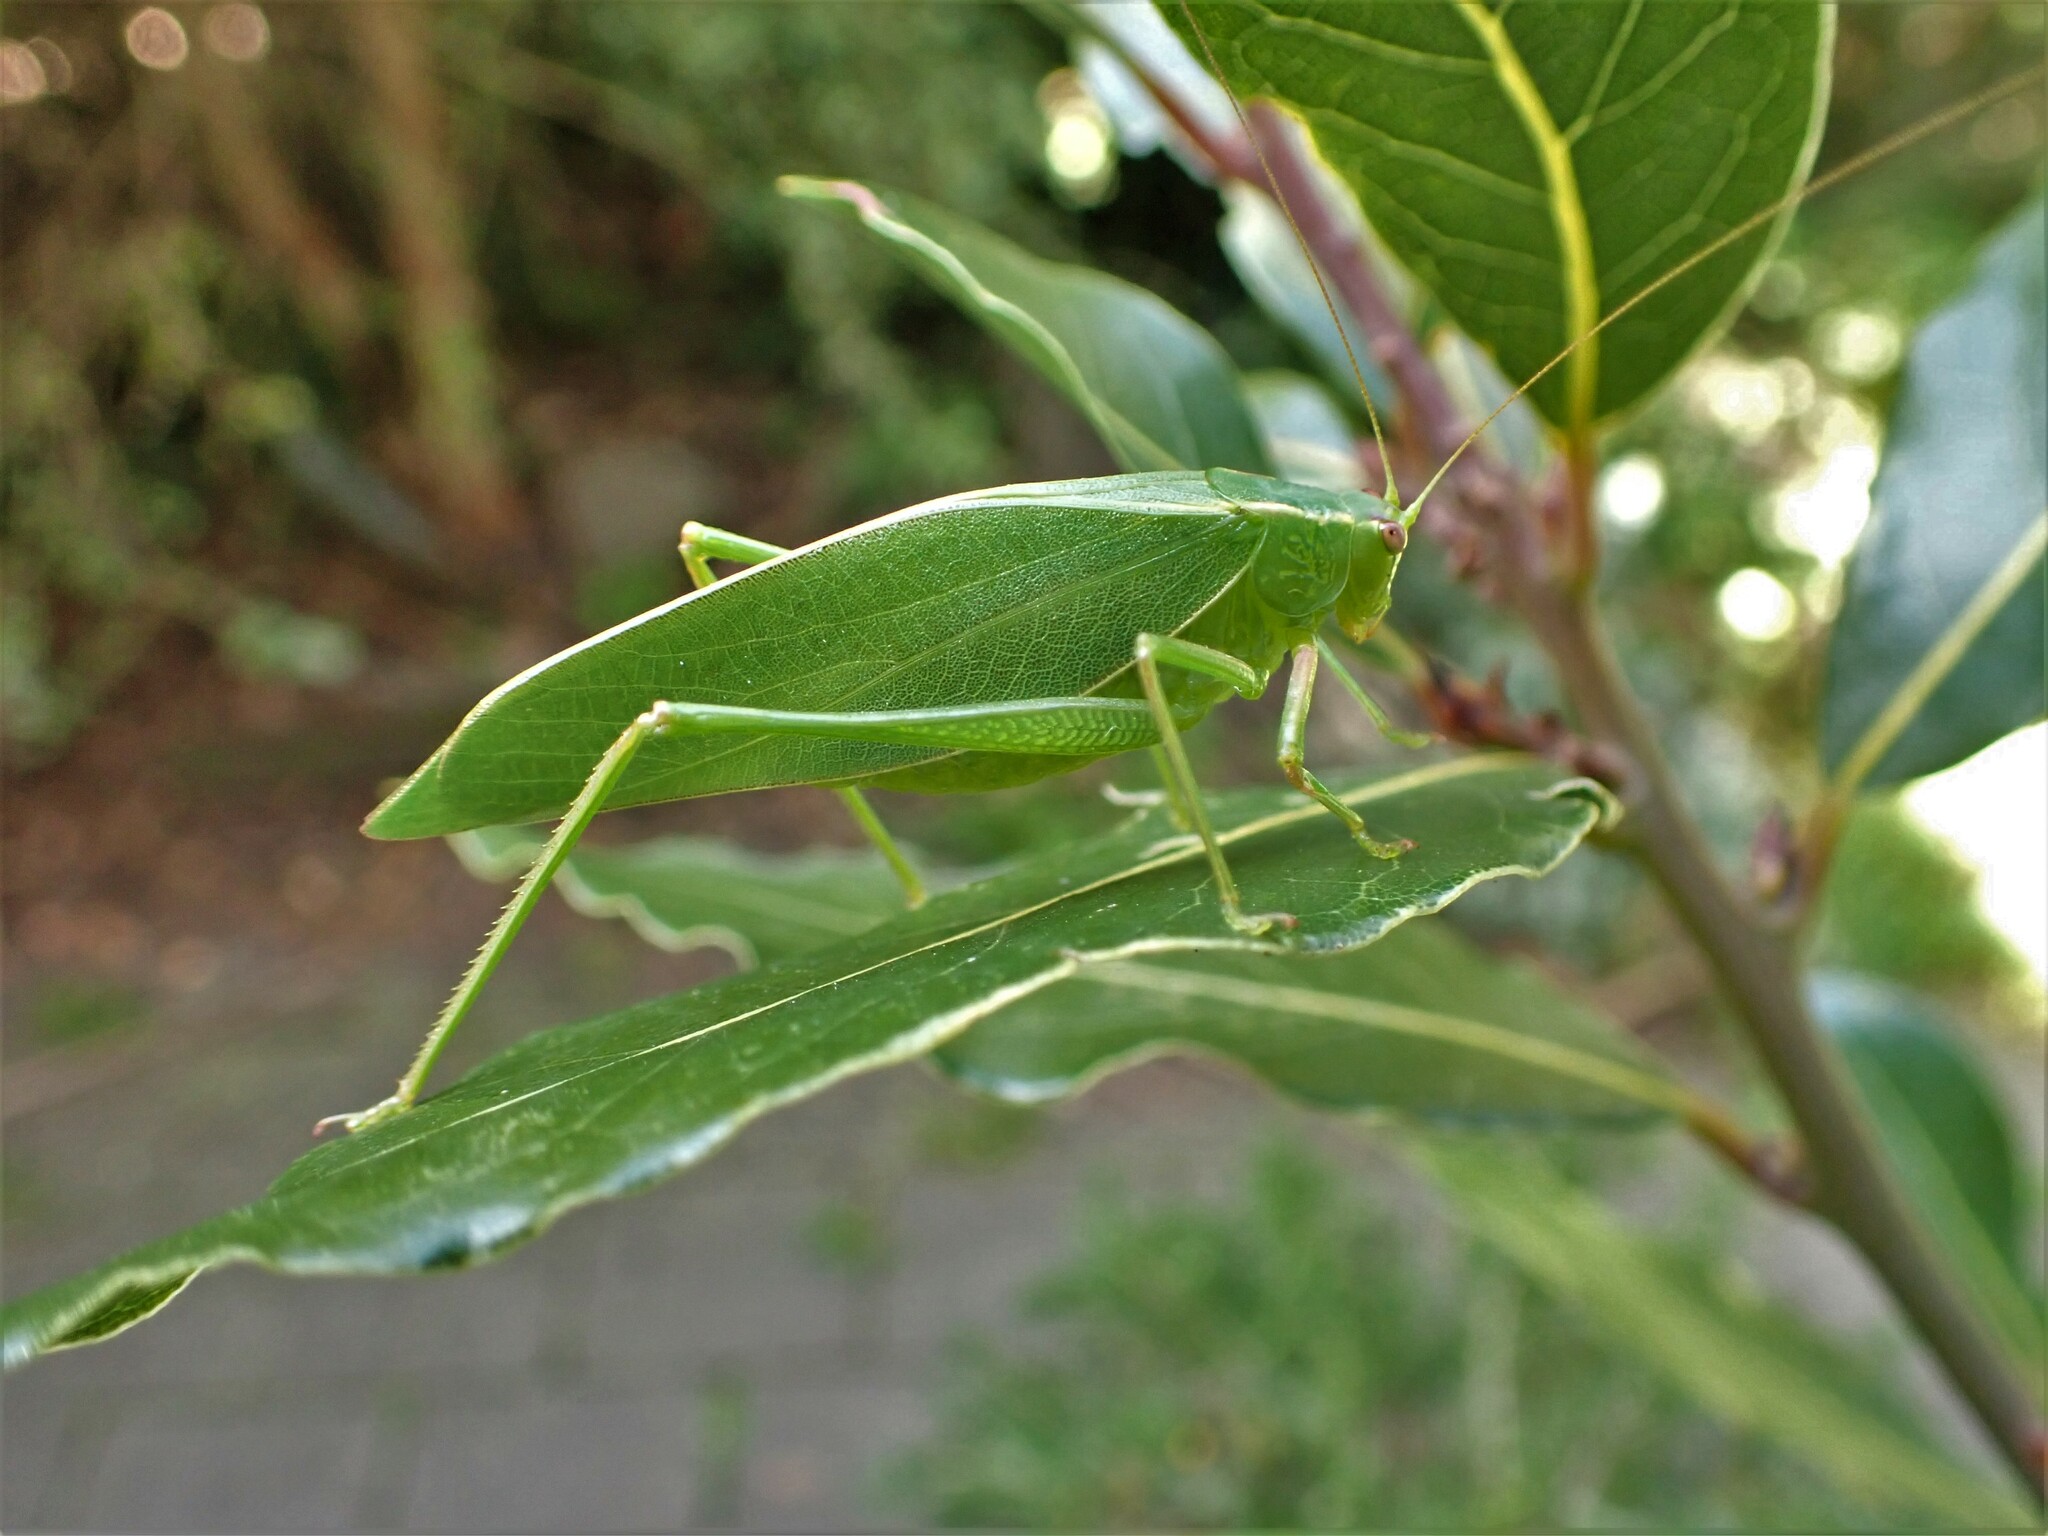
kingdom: Animalia
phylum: Arthropoda
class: Insecta
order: Orthoptera
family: Tettigoniidae
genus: Caedicia
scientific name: Caedicia simplex
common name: Common garden katydid
